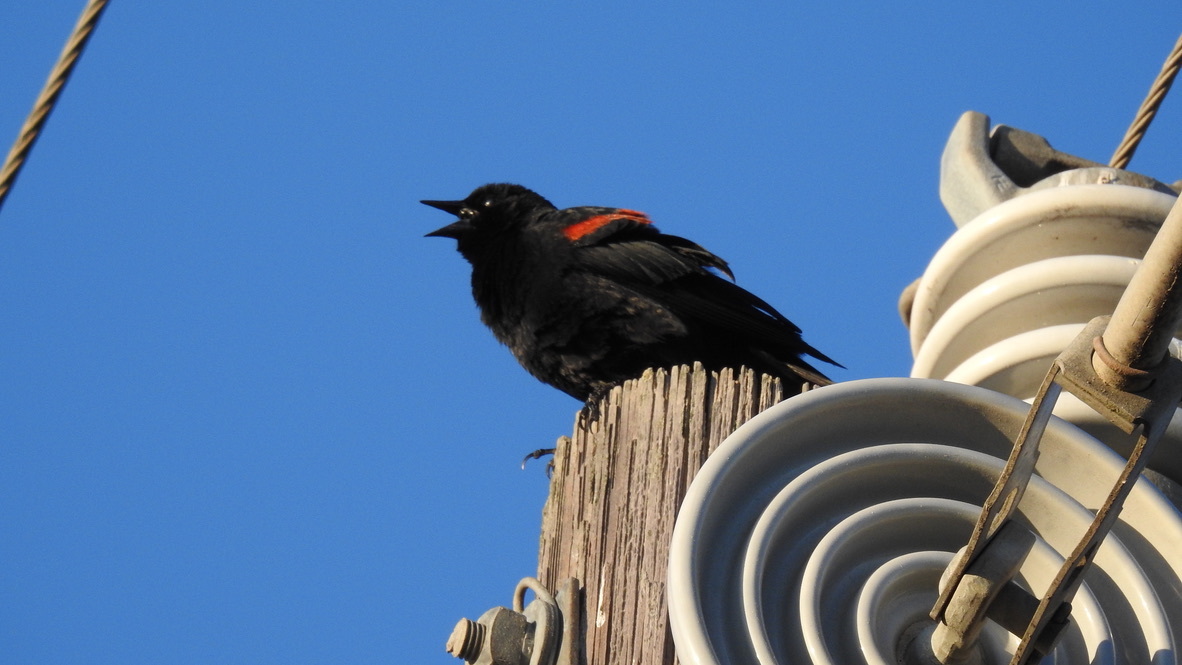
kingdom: Animalia
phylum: Chordata
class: Aves
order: Passeriformes
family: Icteridae
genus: Agelaius
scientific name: Agelaius phoeniceus
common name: Red-winged blackbird
